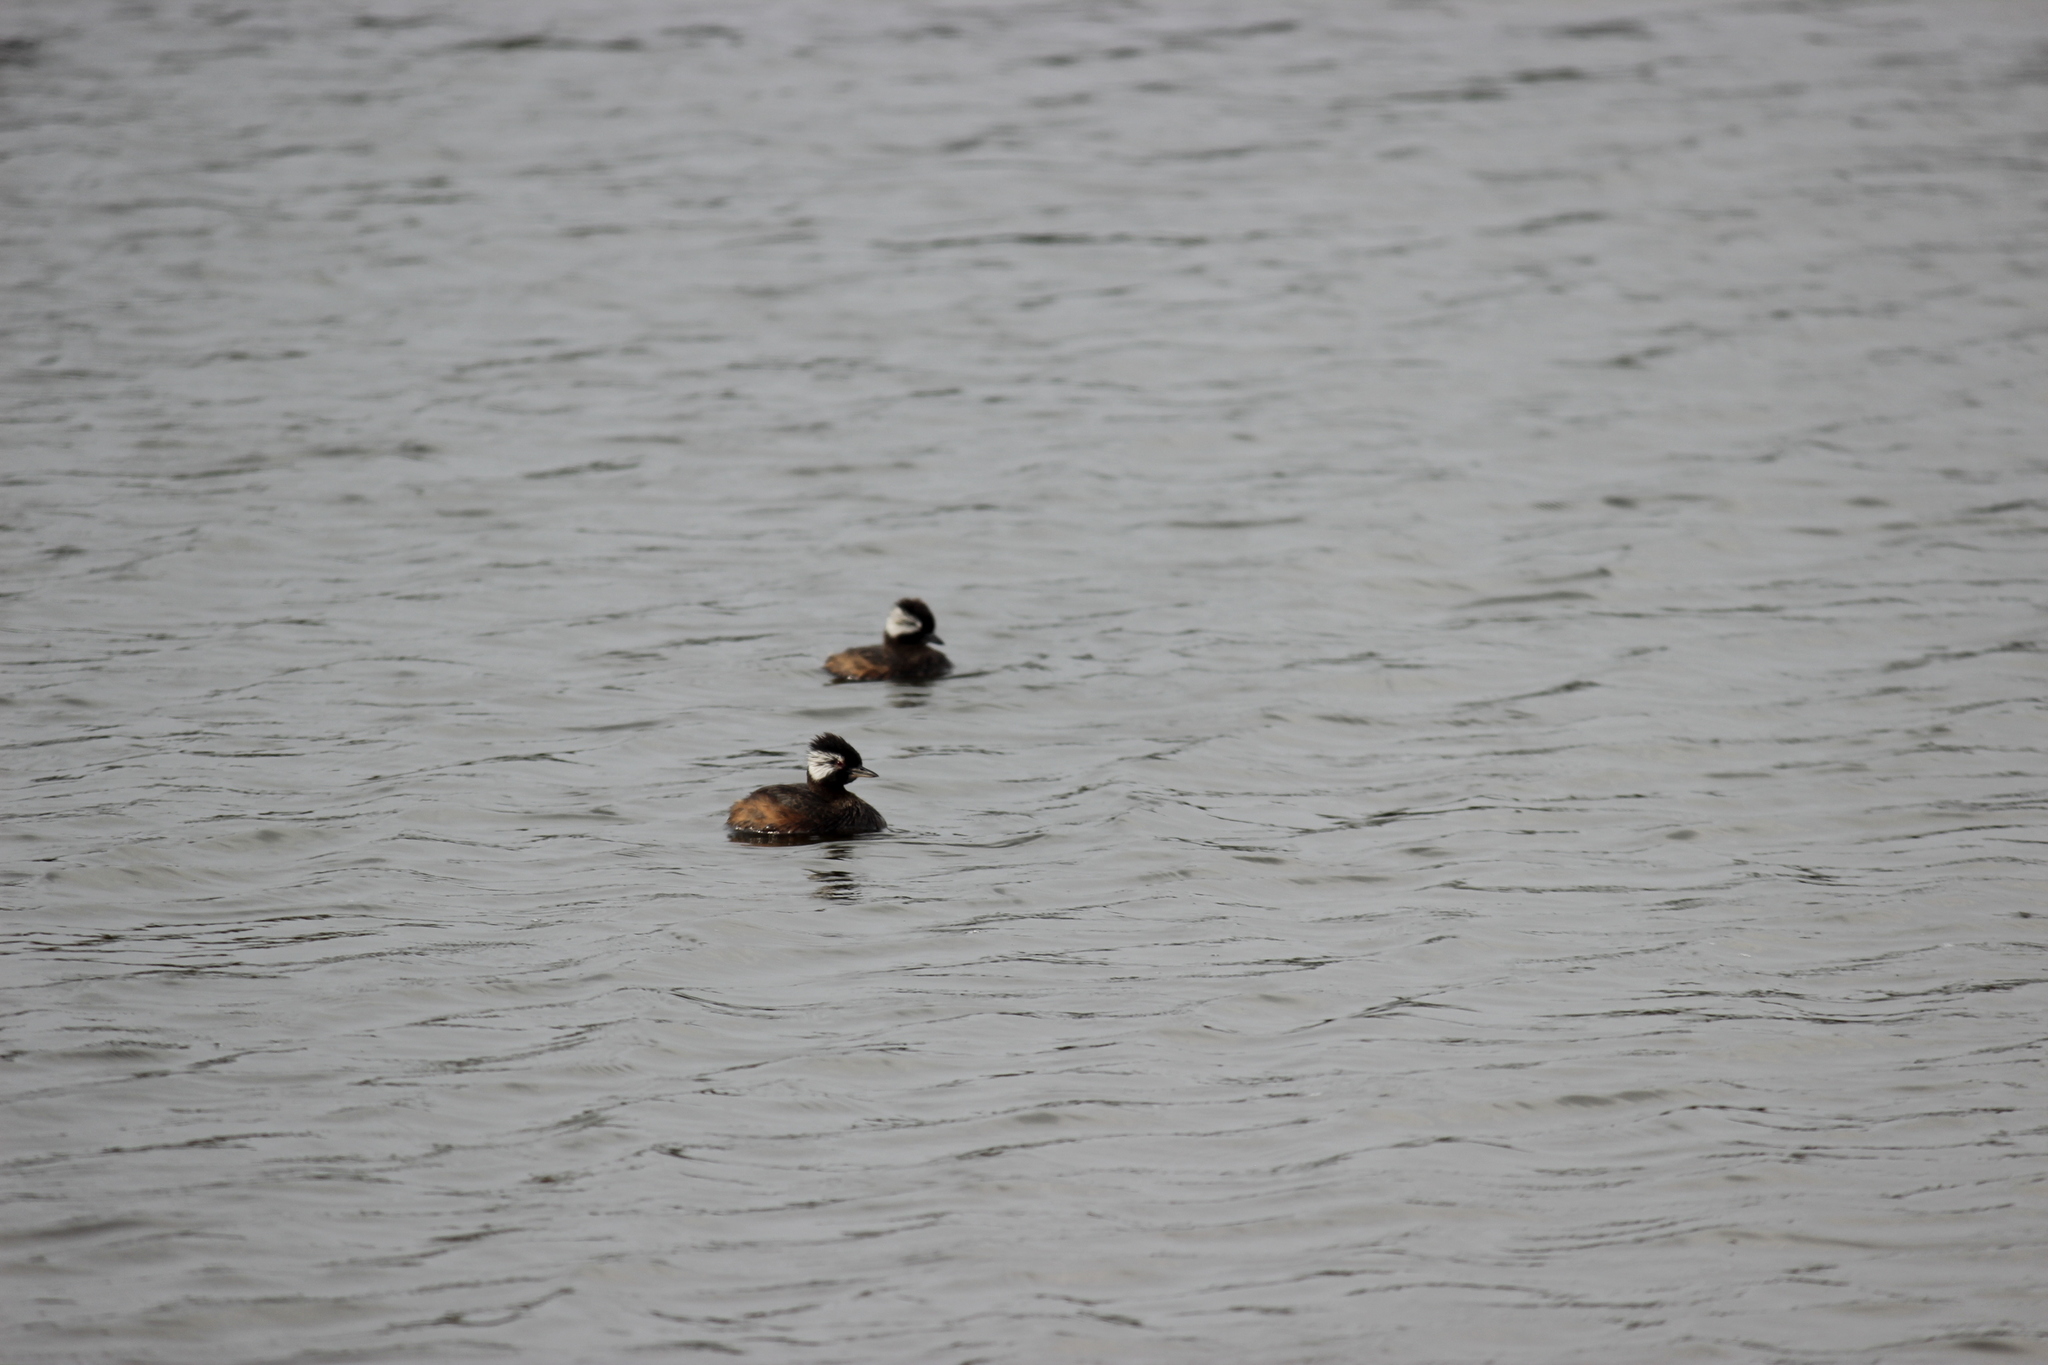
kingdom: Animalia
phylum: Chordata
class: Aves
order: Podicipediformes
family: Podicipedidae
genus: Rollandia
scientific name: Rollandia rolland
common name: White-tufted grebe
